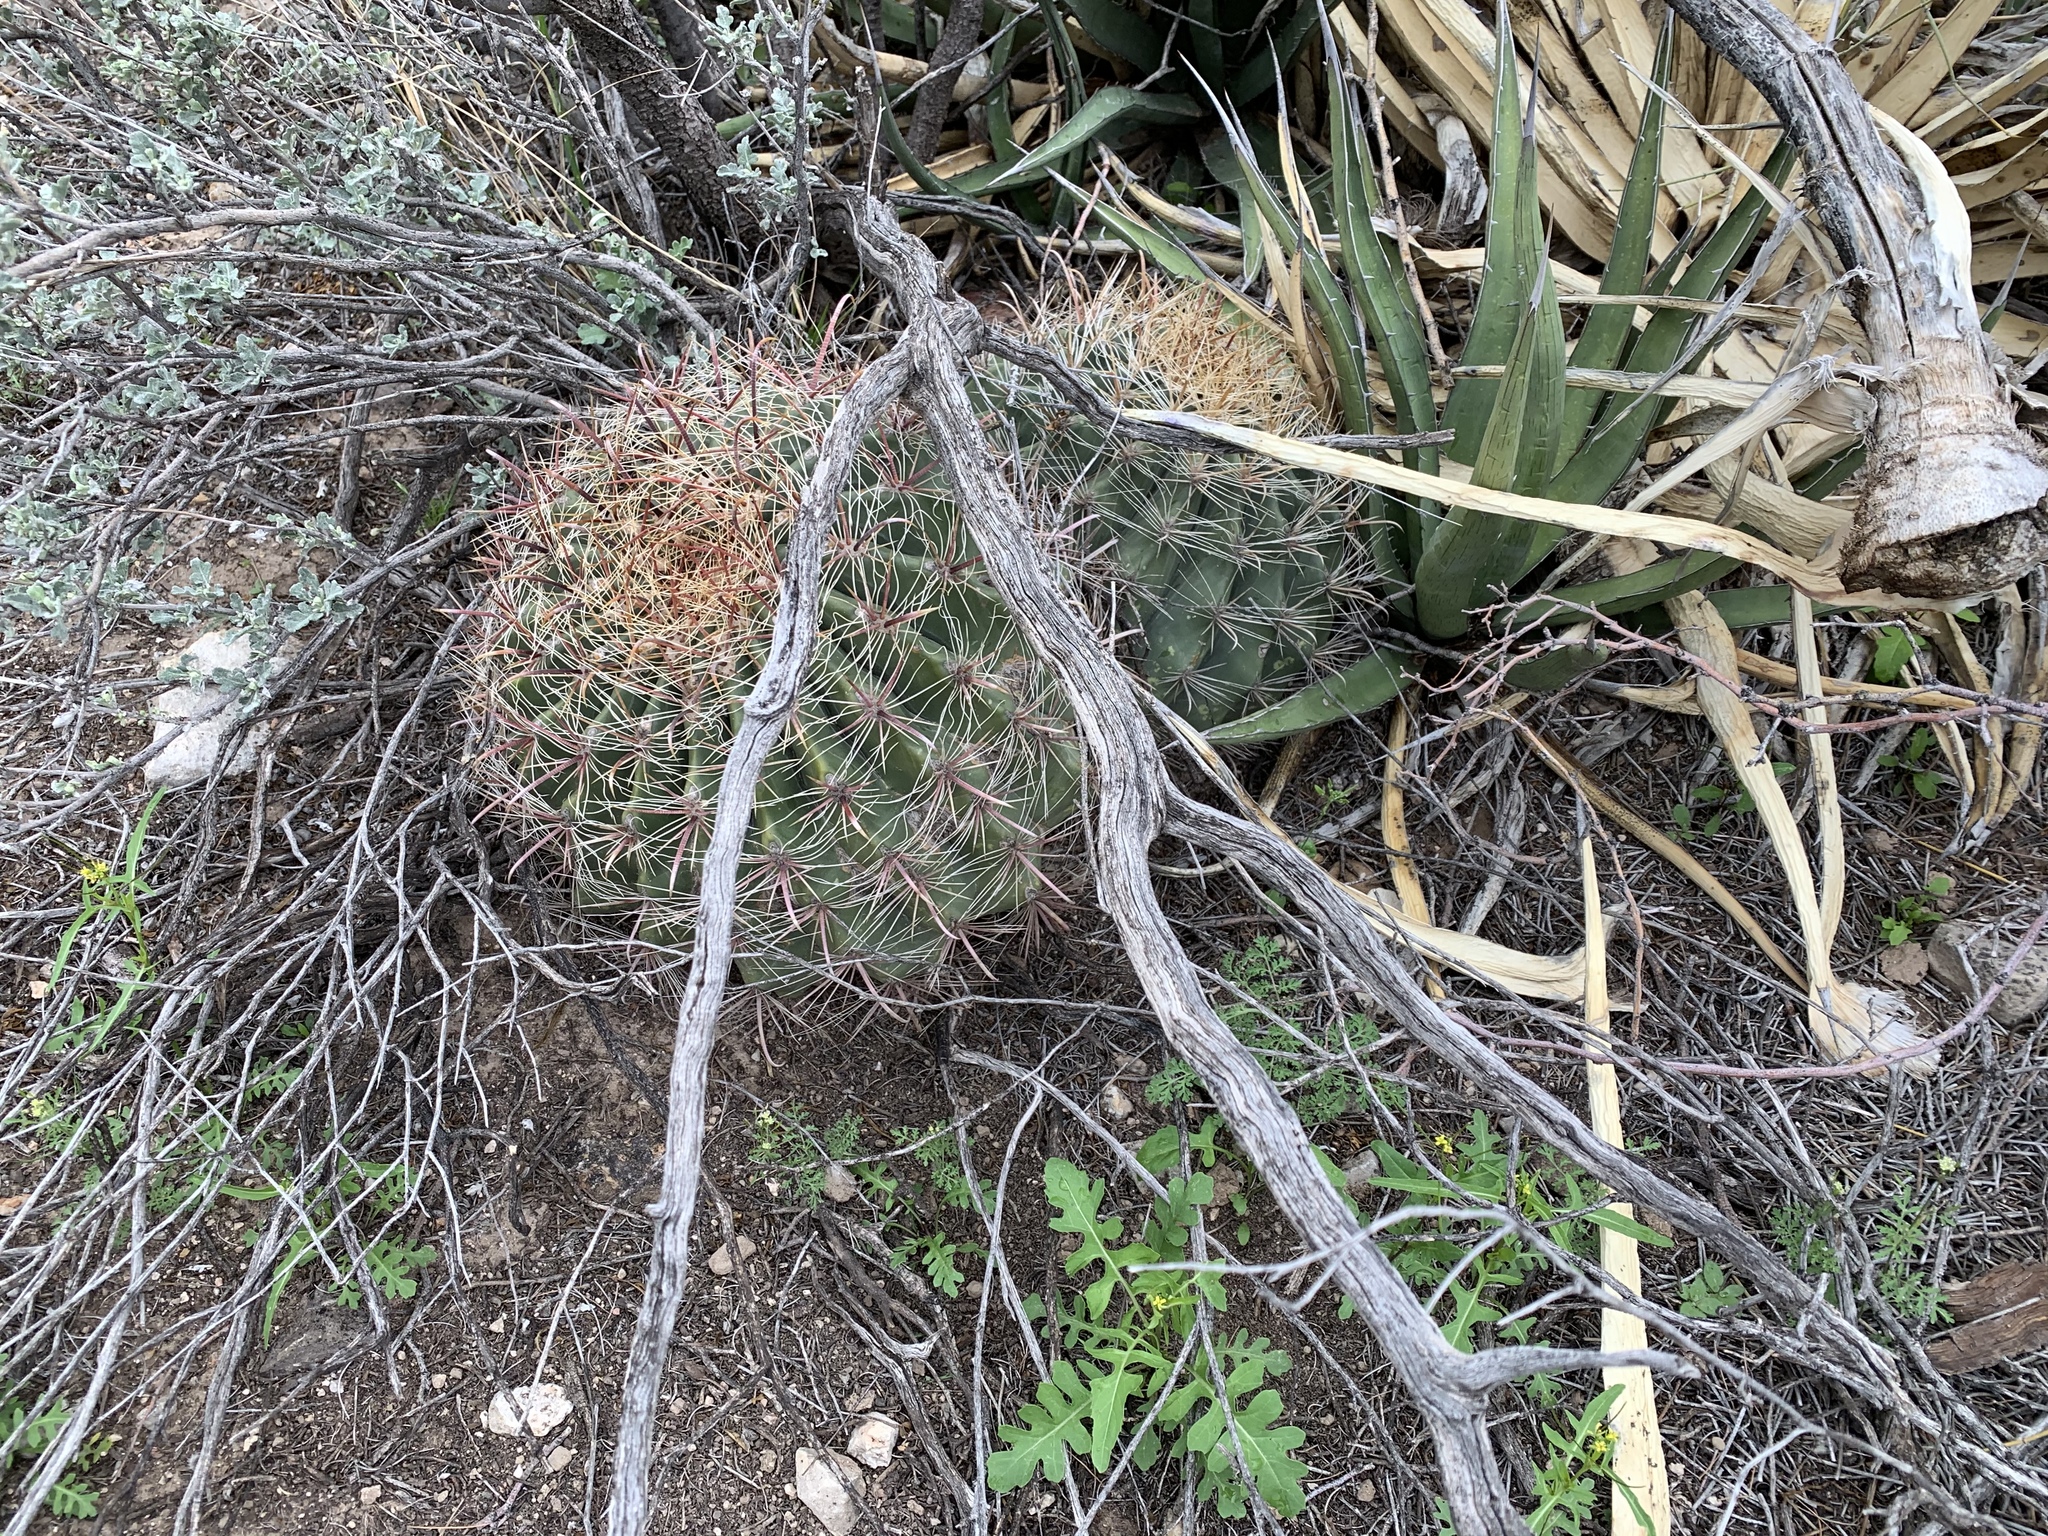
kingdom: Plantae
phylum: Tracheophyta
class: Magnoliopsida
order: Caryophyllales
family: Cactaceae
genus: Ferocactus
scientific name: Ferocactus wislizeni
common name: Candy barrel cactus
